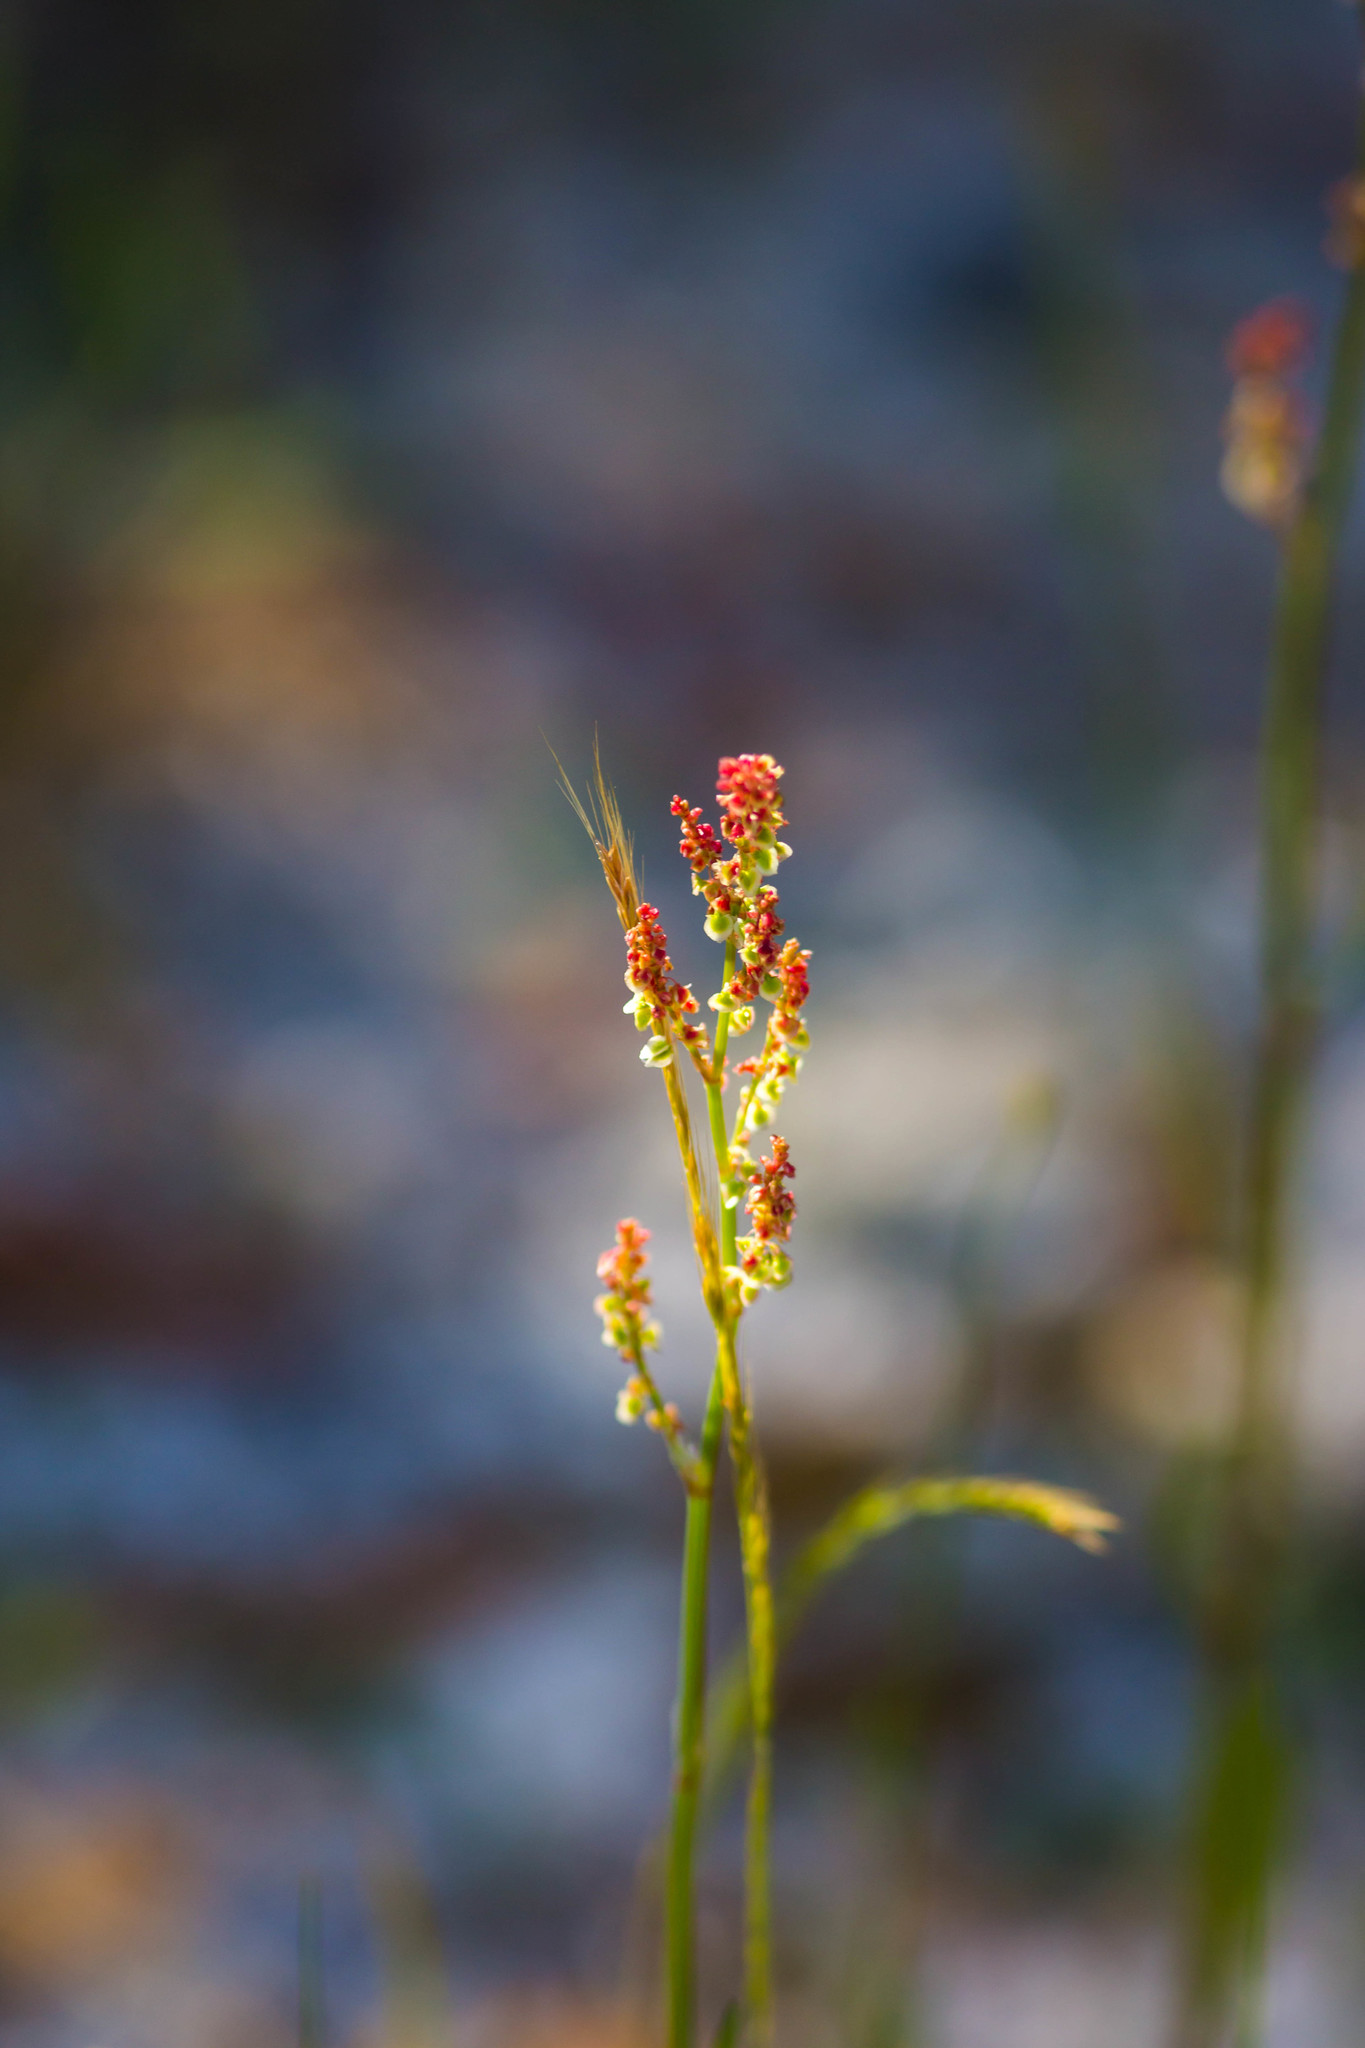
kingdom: Plantae
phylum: Tracheophyta
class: Magnoliopsida
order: Caryophyllales
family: Polygonaceae
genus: Rumex
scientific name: Rumex acetosella
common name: Common sheep sorrel
